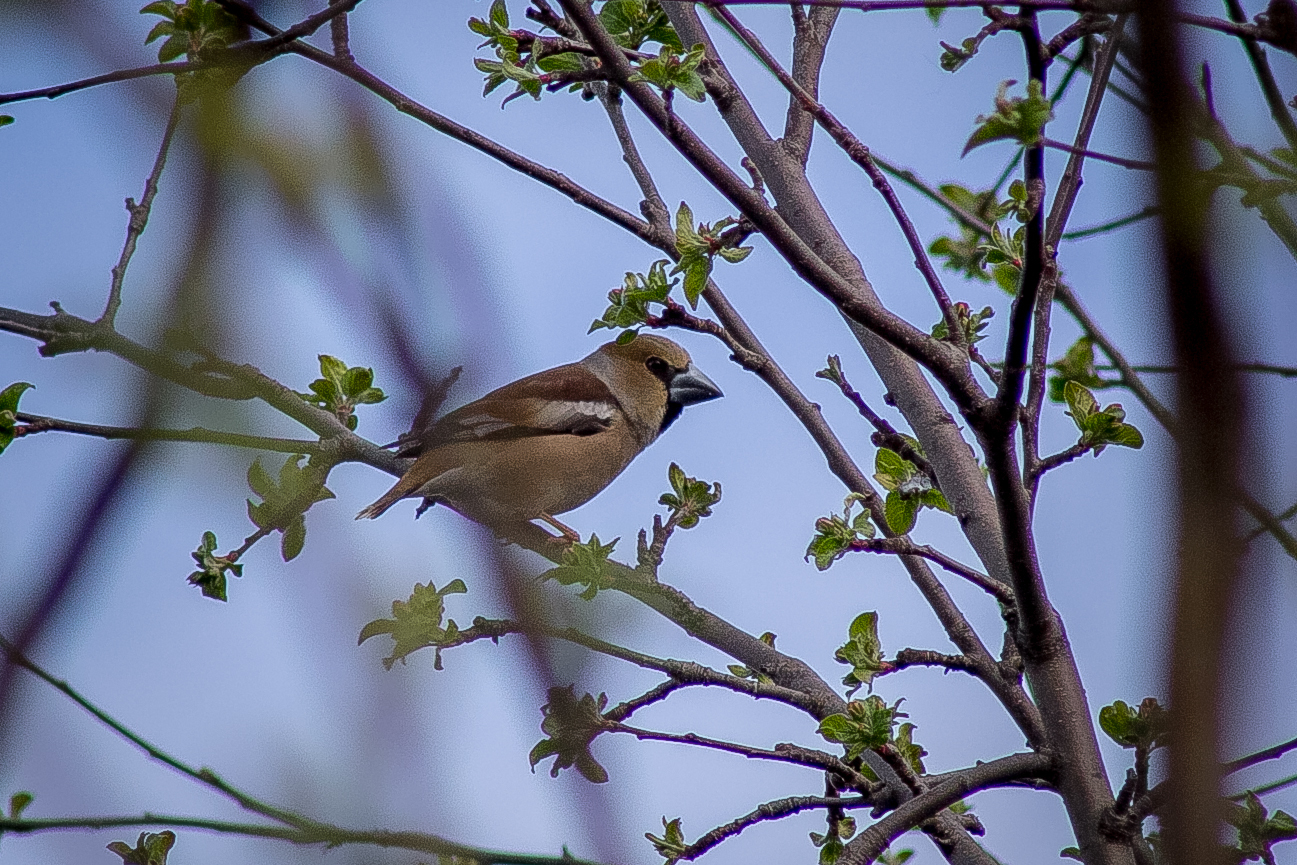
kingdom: Animalia
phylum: Chordata
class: Aves
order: Passeriformes
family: Fringillidae
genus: Coccothraustes
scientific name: Coccothraustes coccothraustes
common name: Hawfinch
